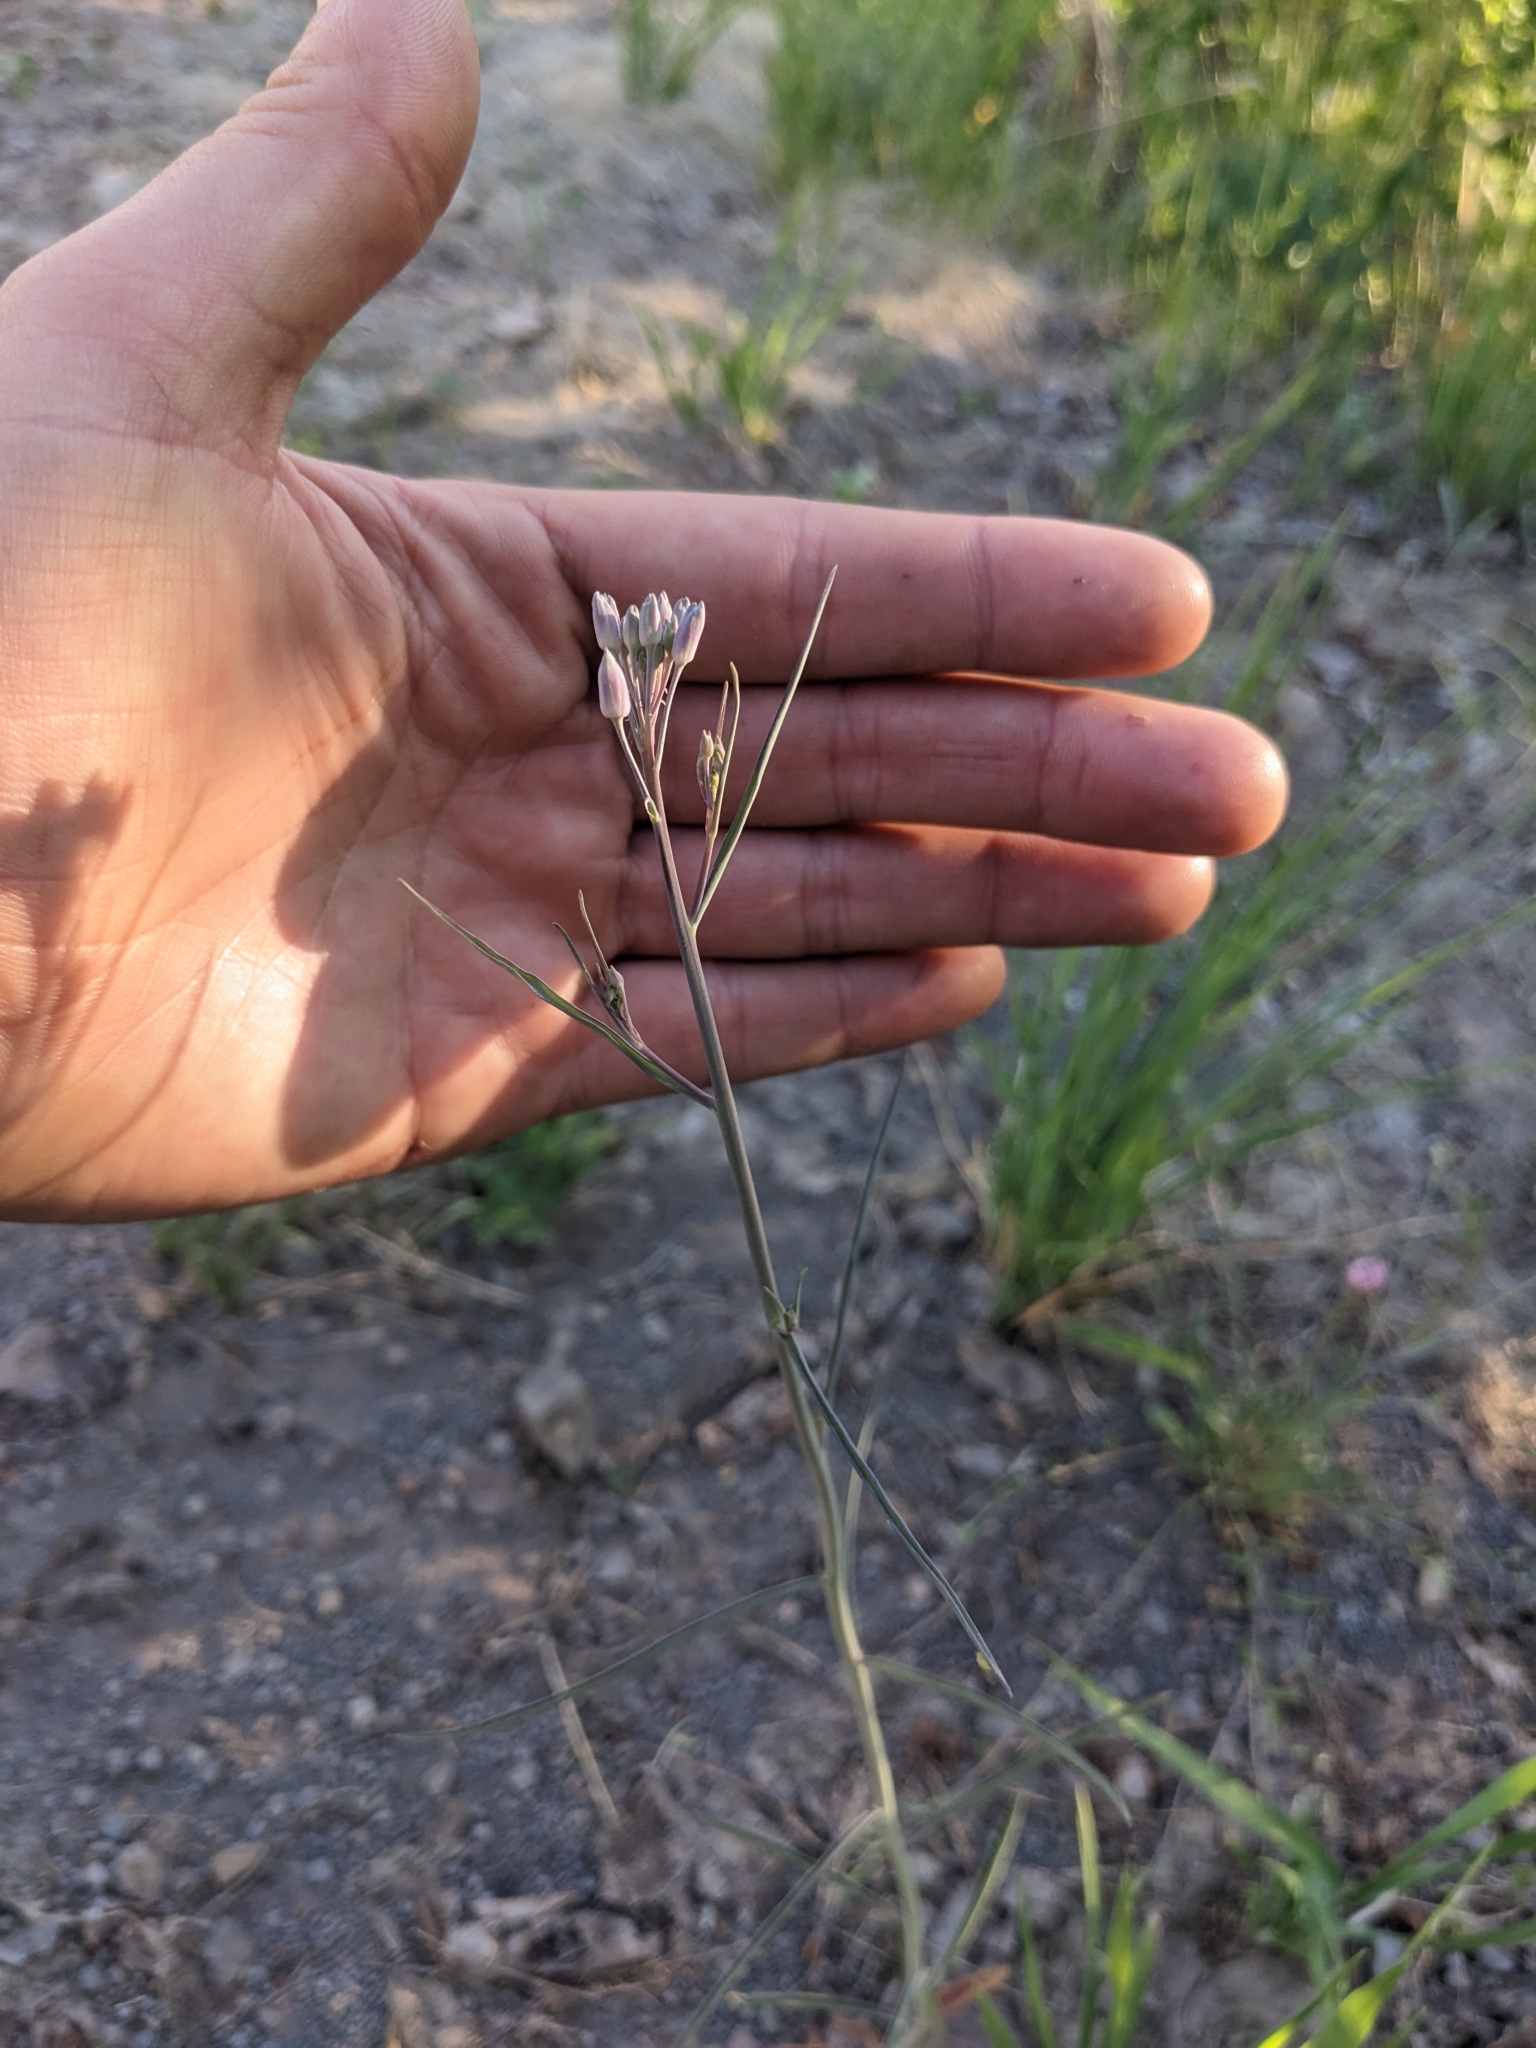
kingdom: Plantae
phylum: Tracheophyta
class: Magnoliopsida
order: Brassicales
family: Brassicaceae
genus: Hesperidanthus
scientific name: Hesperidanthus linearifolius
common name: Slim-leaf plains mustard
